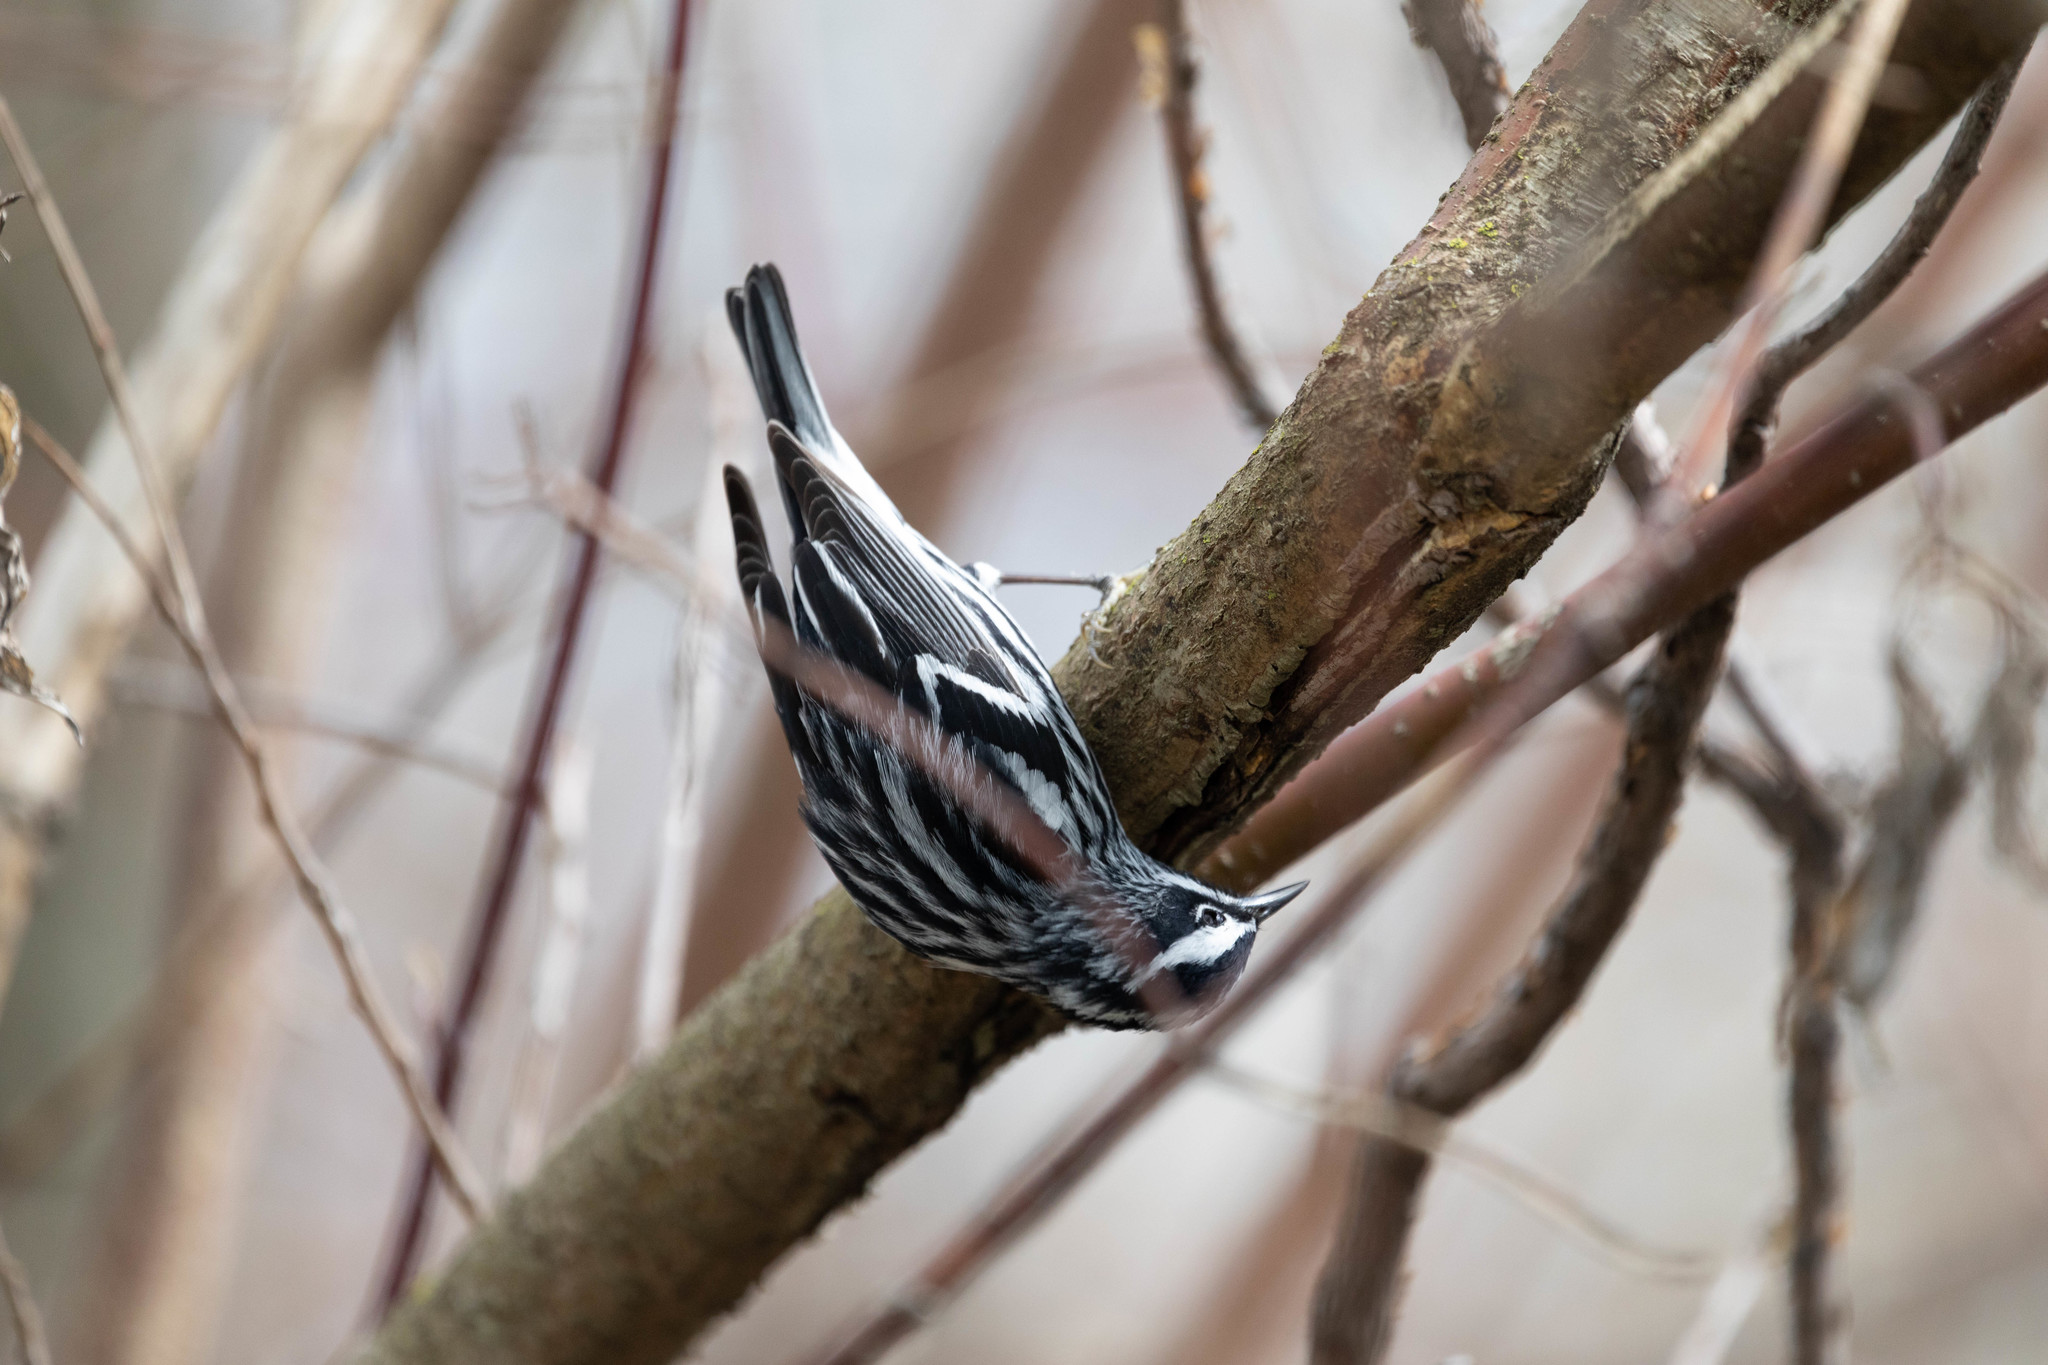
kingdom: Animalia
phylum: Chordata
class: Aves
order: Passeriformes
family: Parulidae
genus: Mniotilta
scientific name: Mniotilta varia
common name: Black-and-white warbler
